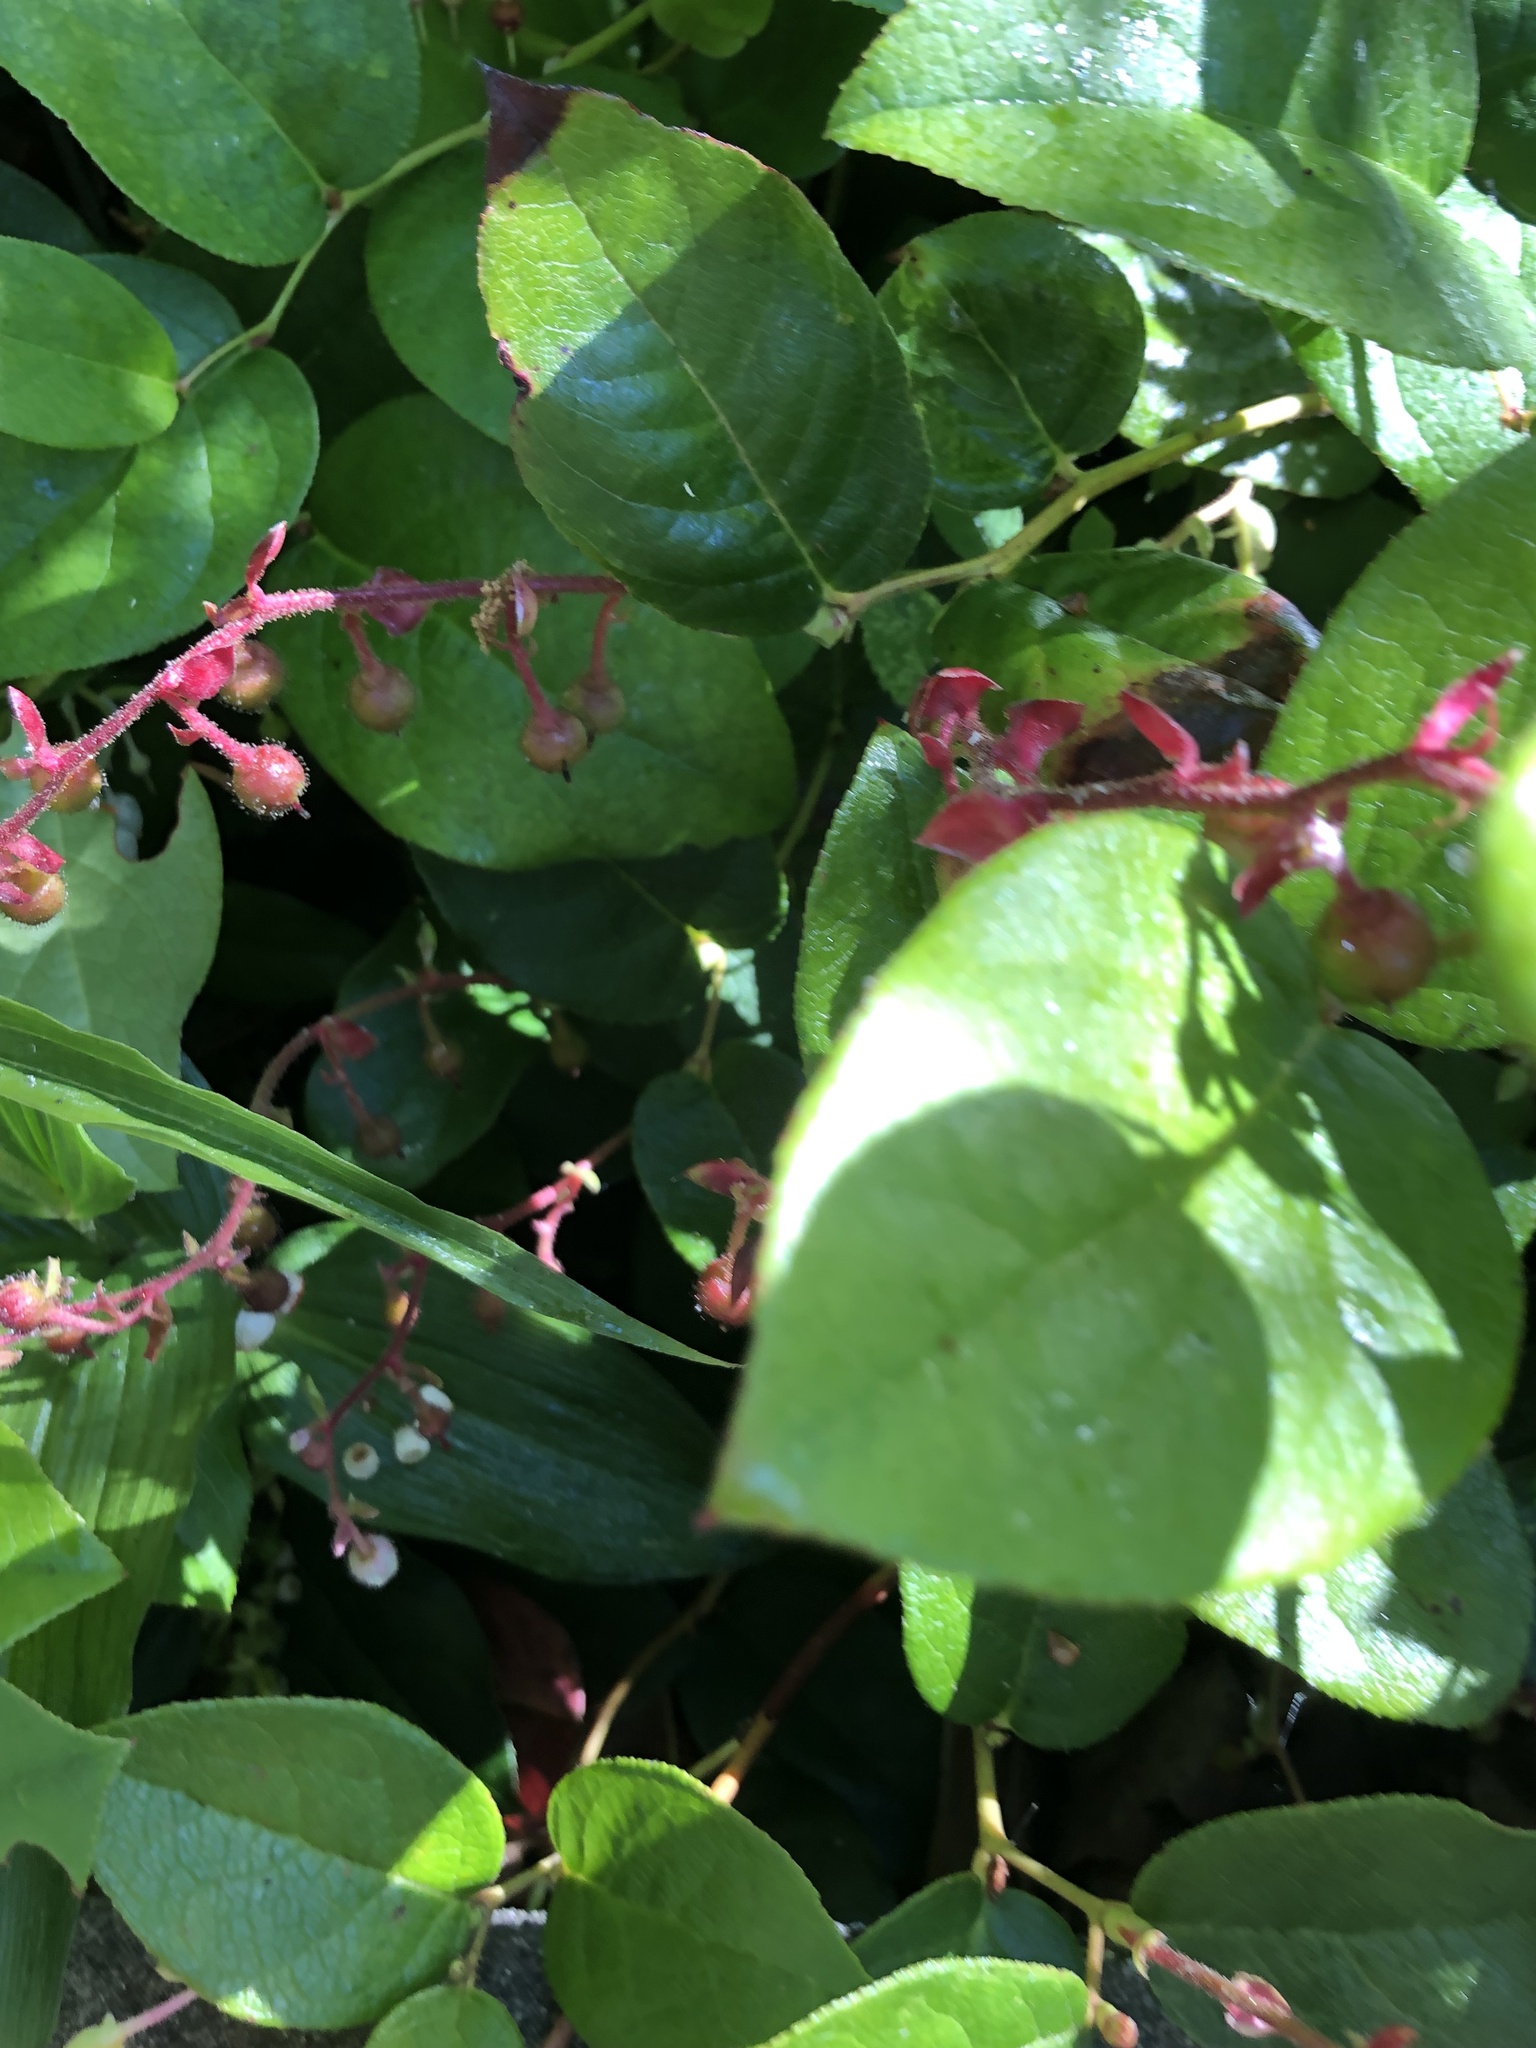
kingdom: Plantae
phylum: Tracheophyta
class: Liliopsida
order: Asparagales
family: Orchidaceae
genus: Epipactis
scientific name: Epipactis helleborine
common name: Broad-leaved helleborine
